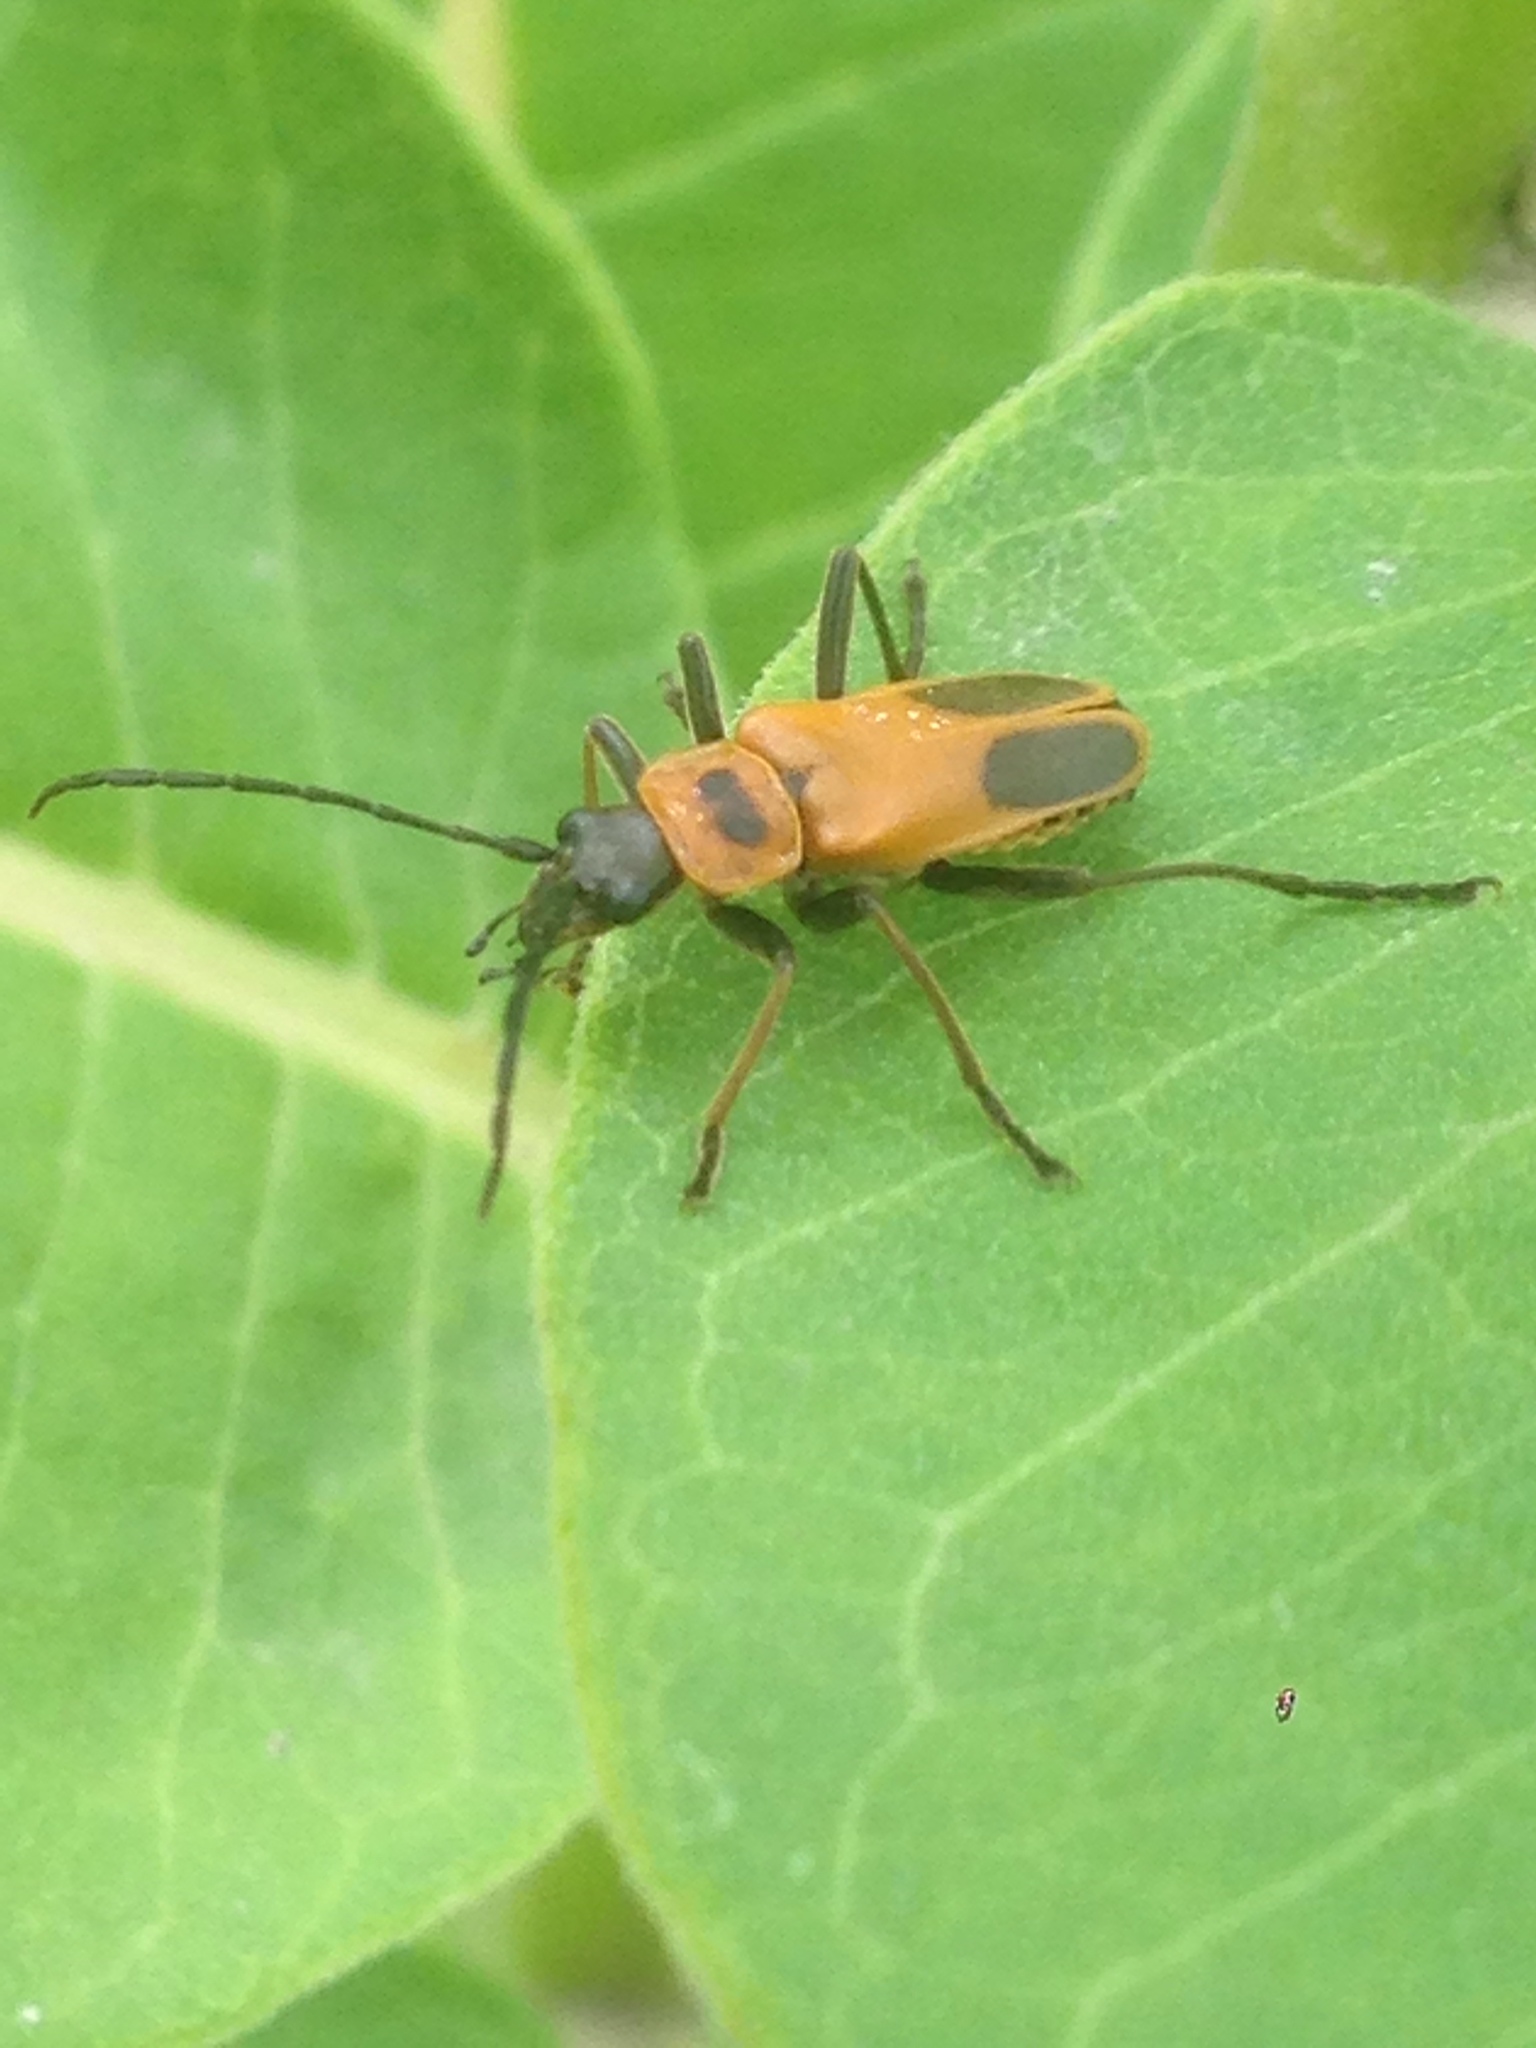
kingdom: Animalia
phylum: Arthropoda
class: Insecta
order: Coleoptera
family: Cantharidae
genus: Chauliognathus
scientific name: Chauliognathus pensylvanicus
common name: Goldenrod soldier beetle
